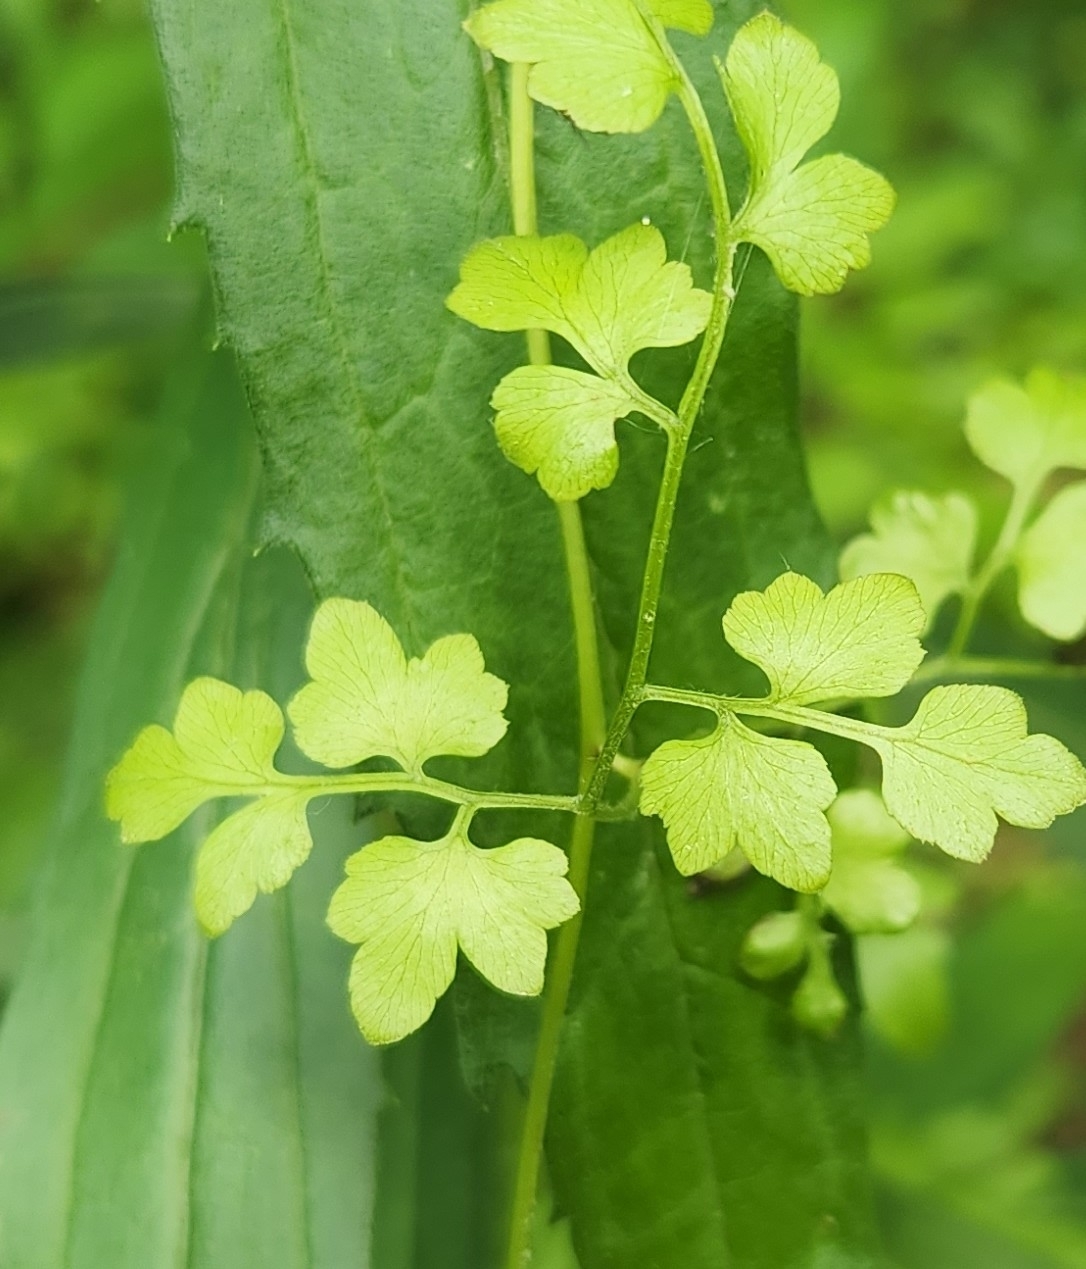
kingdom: Plantae
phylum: Tracheophyta
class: Polypodiopsida
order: Schizaeales
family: Lygodiaceae
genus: Lygodium
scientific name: Lygodium japonicum
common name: Japanese climbing fern
